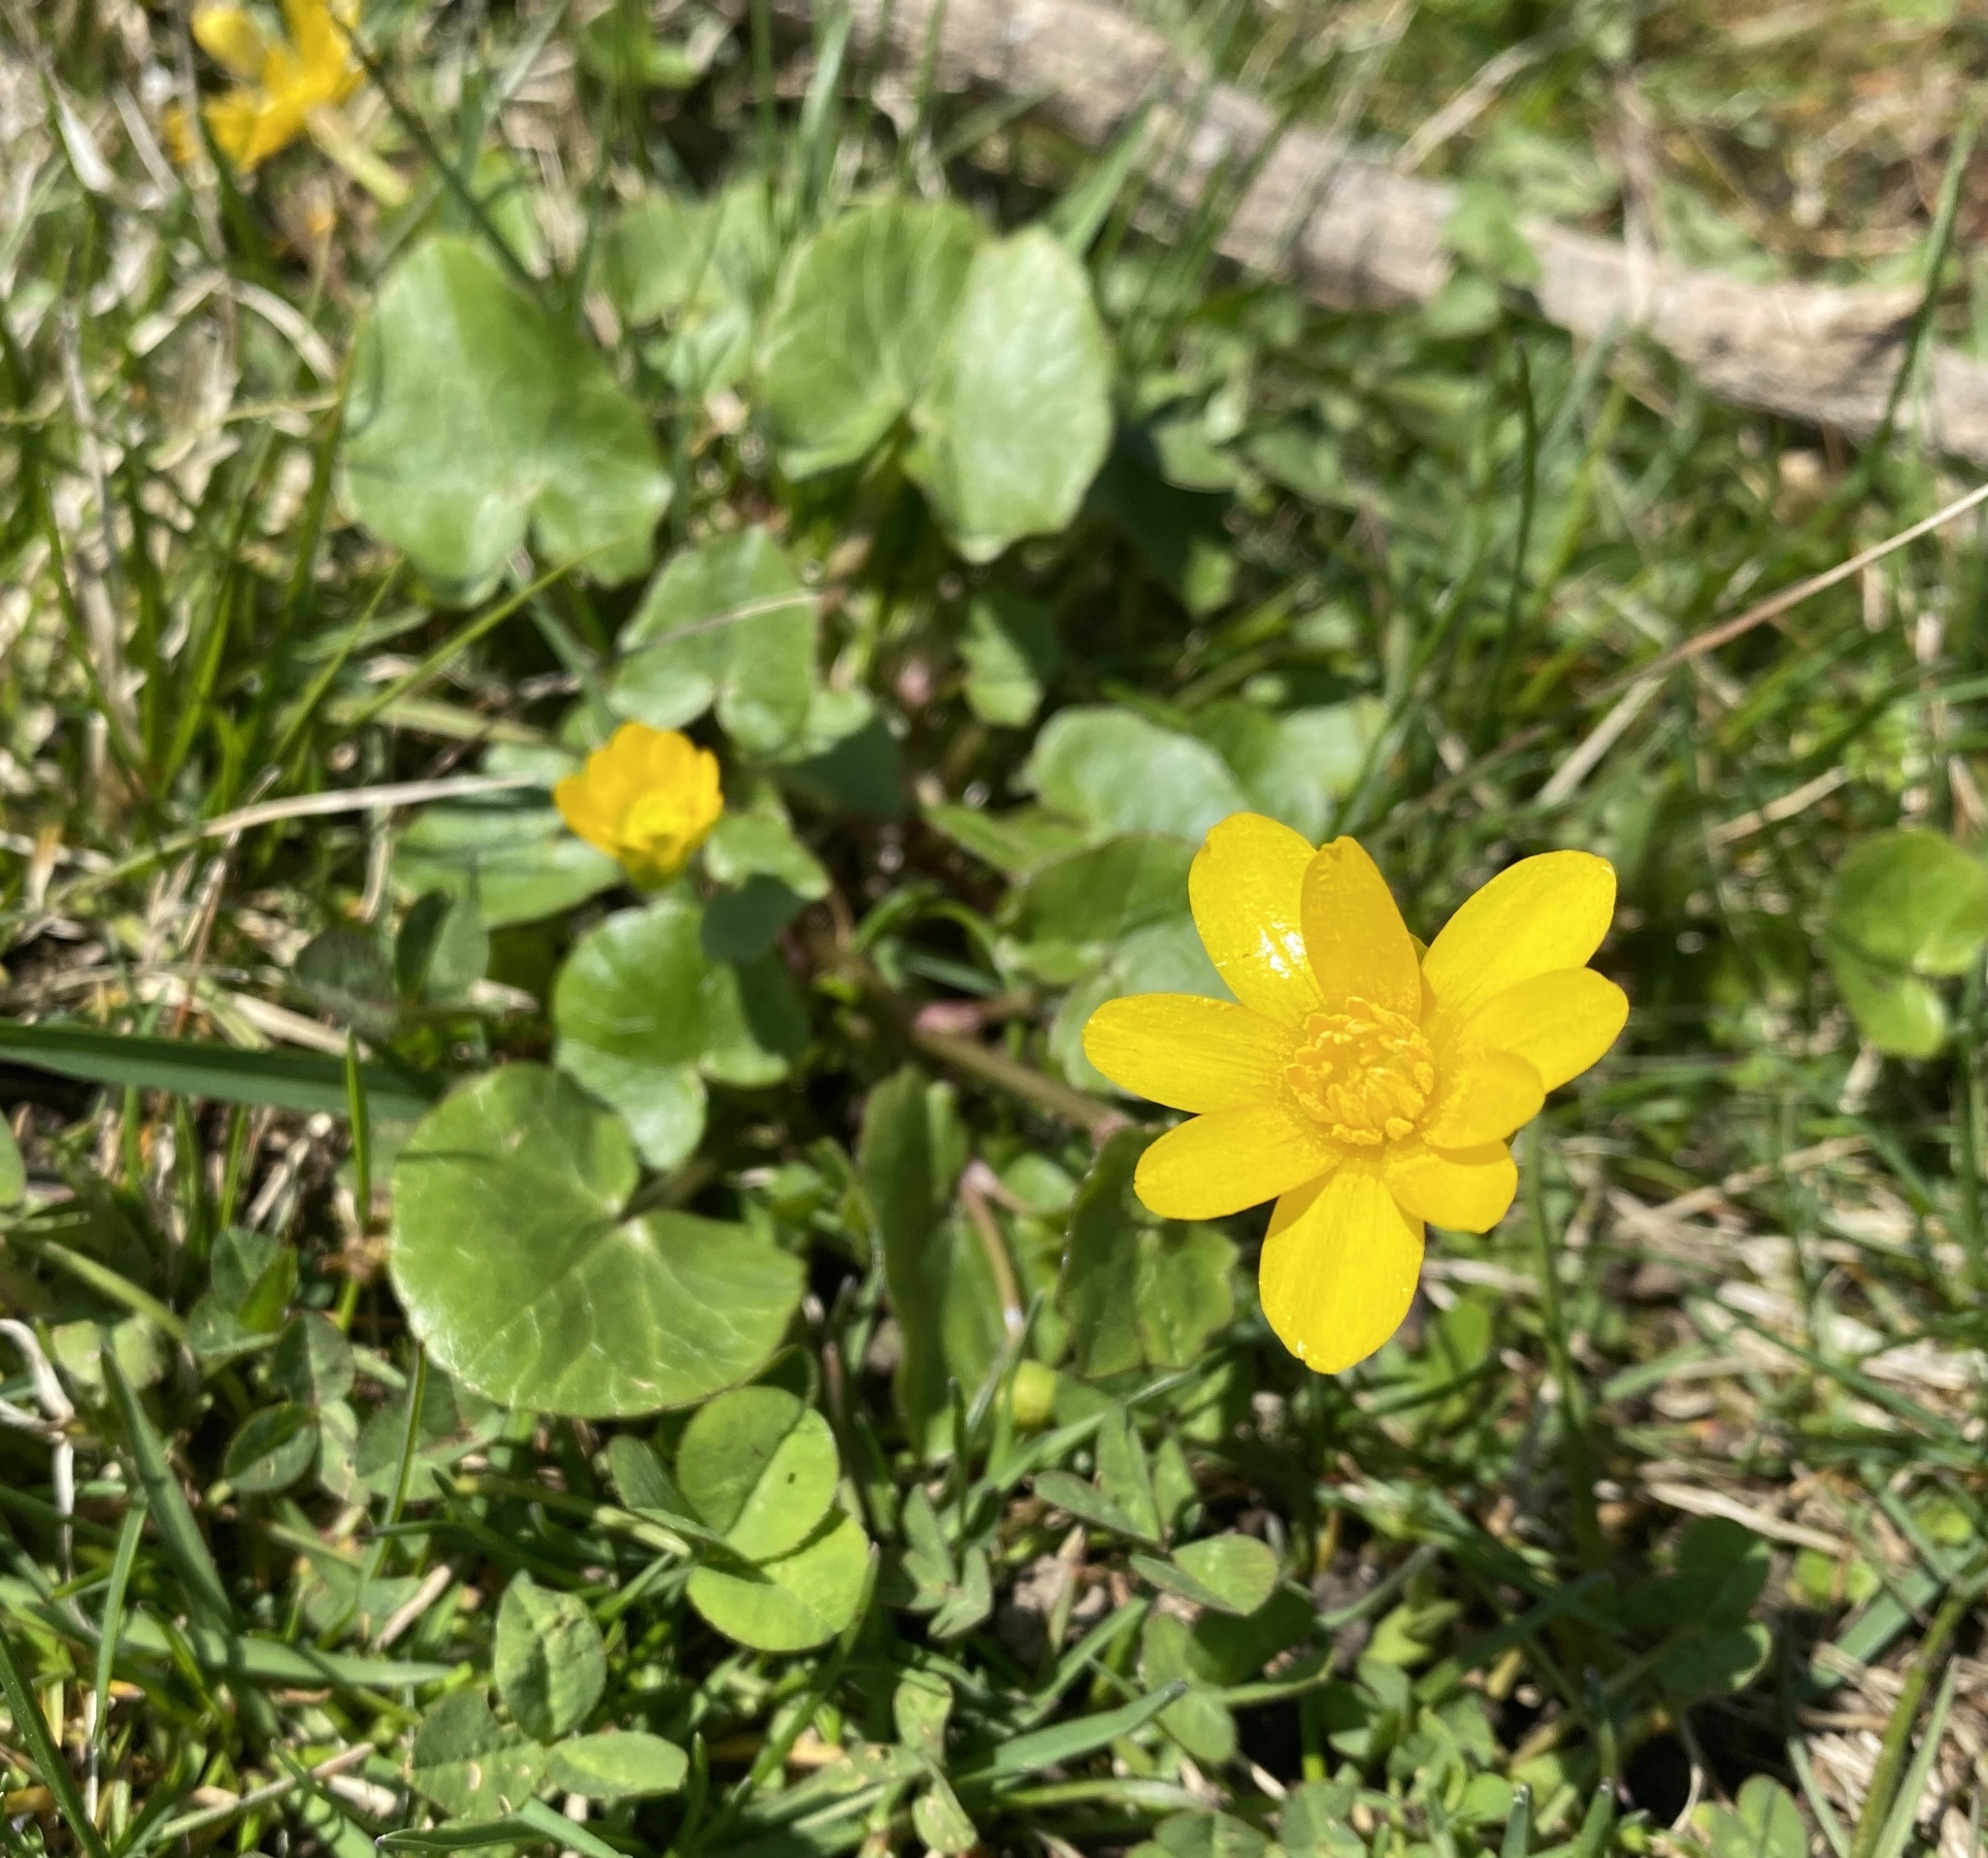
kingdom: Plantae
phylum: Tracheophyta
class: Magnoliopsida
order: Ranunculales
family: Ranunculaceae
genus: Ficaria
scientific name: Ficaria verna
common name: Lesser celandine
